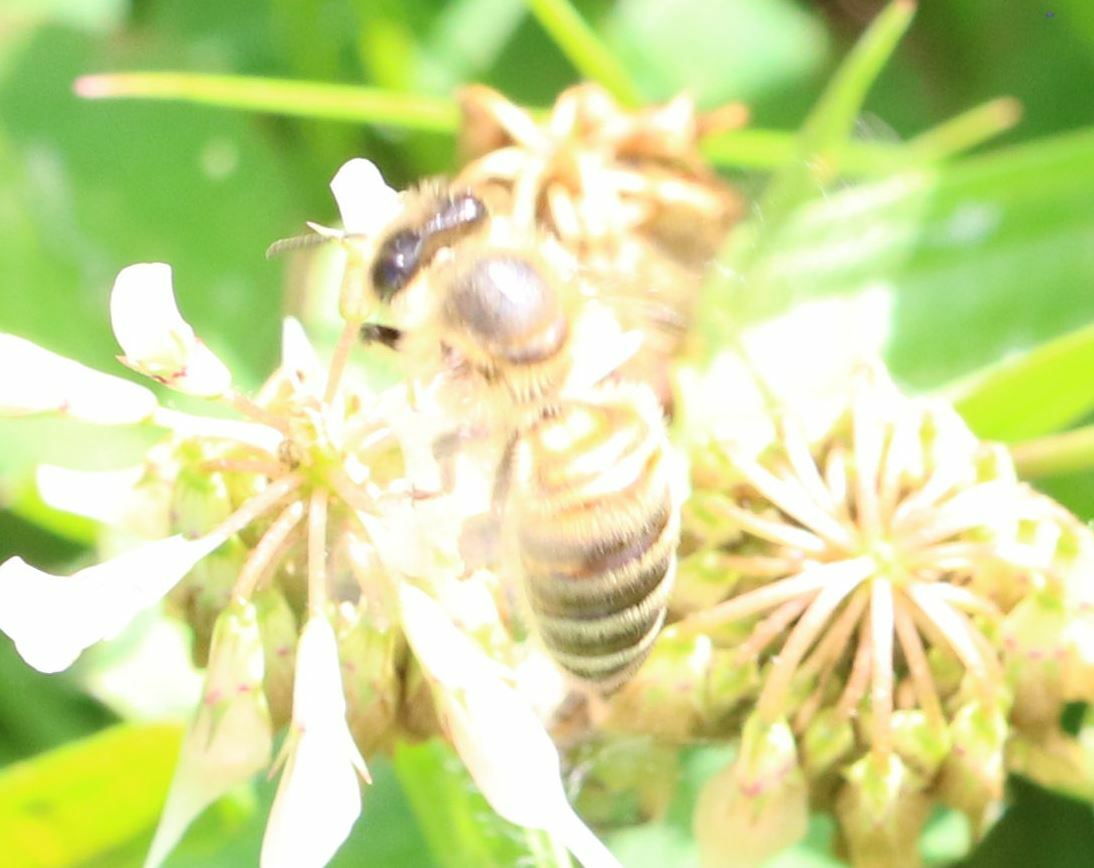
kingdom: Animalia
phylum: Arthropoda
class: Insecta
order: Hymenoptera
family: Apidae
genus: Apis
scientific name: Apis mellifera
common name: Honey bee
